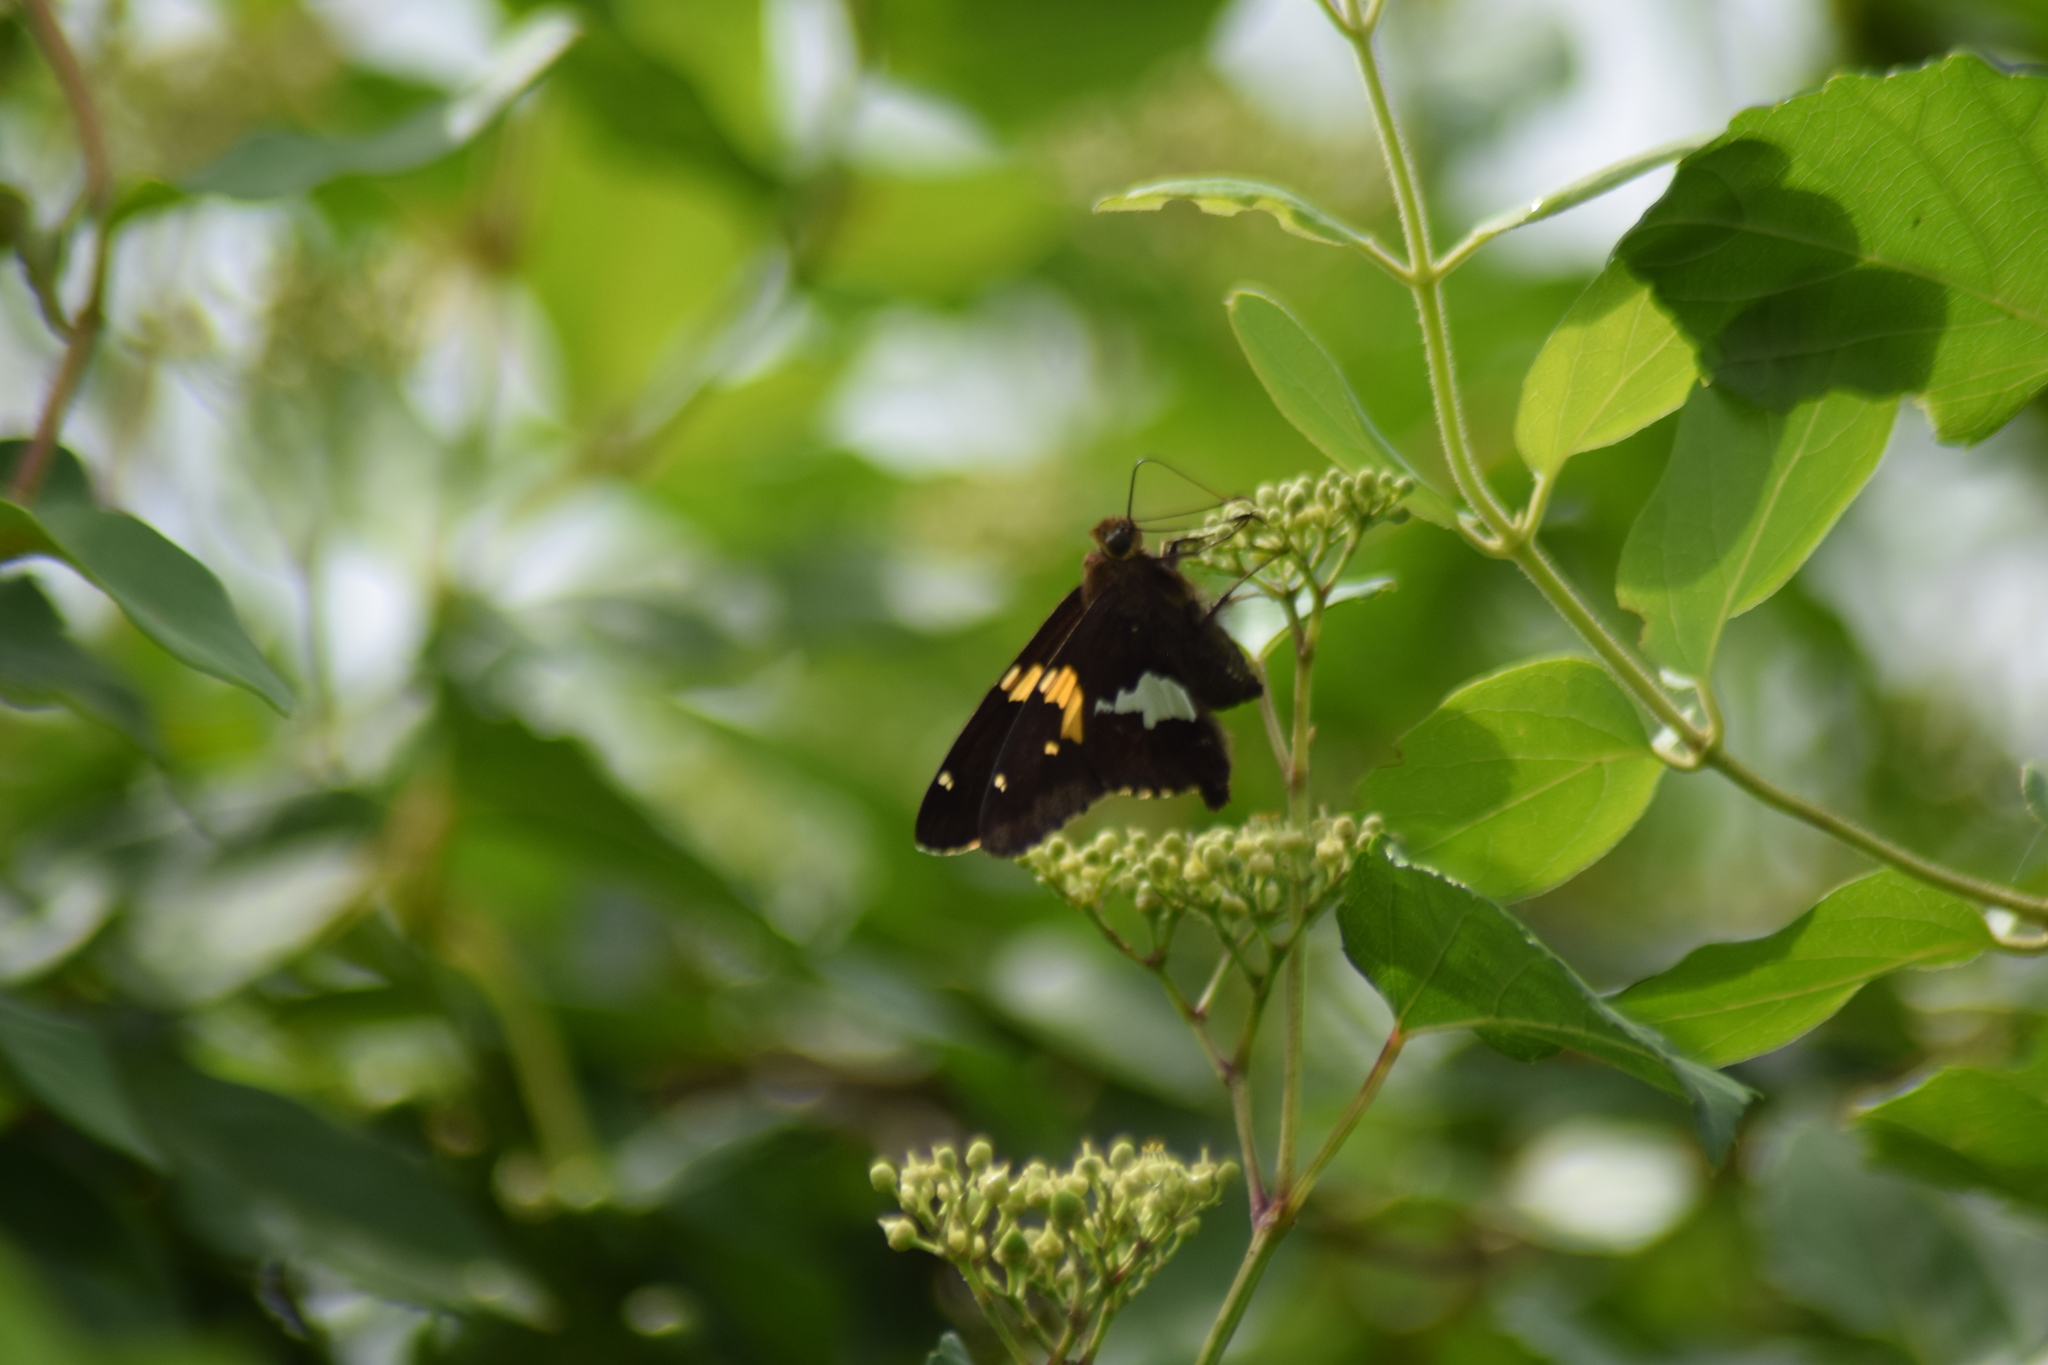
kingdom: Animalia
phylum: Arthropoda
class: Insecta
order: Lepidoptera
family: Hesperiidae
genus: Epargyreus
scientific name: Epargyreus clarus
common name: Silver-spotted skipper
